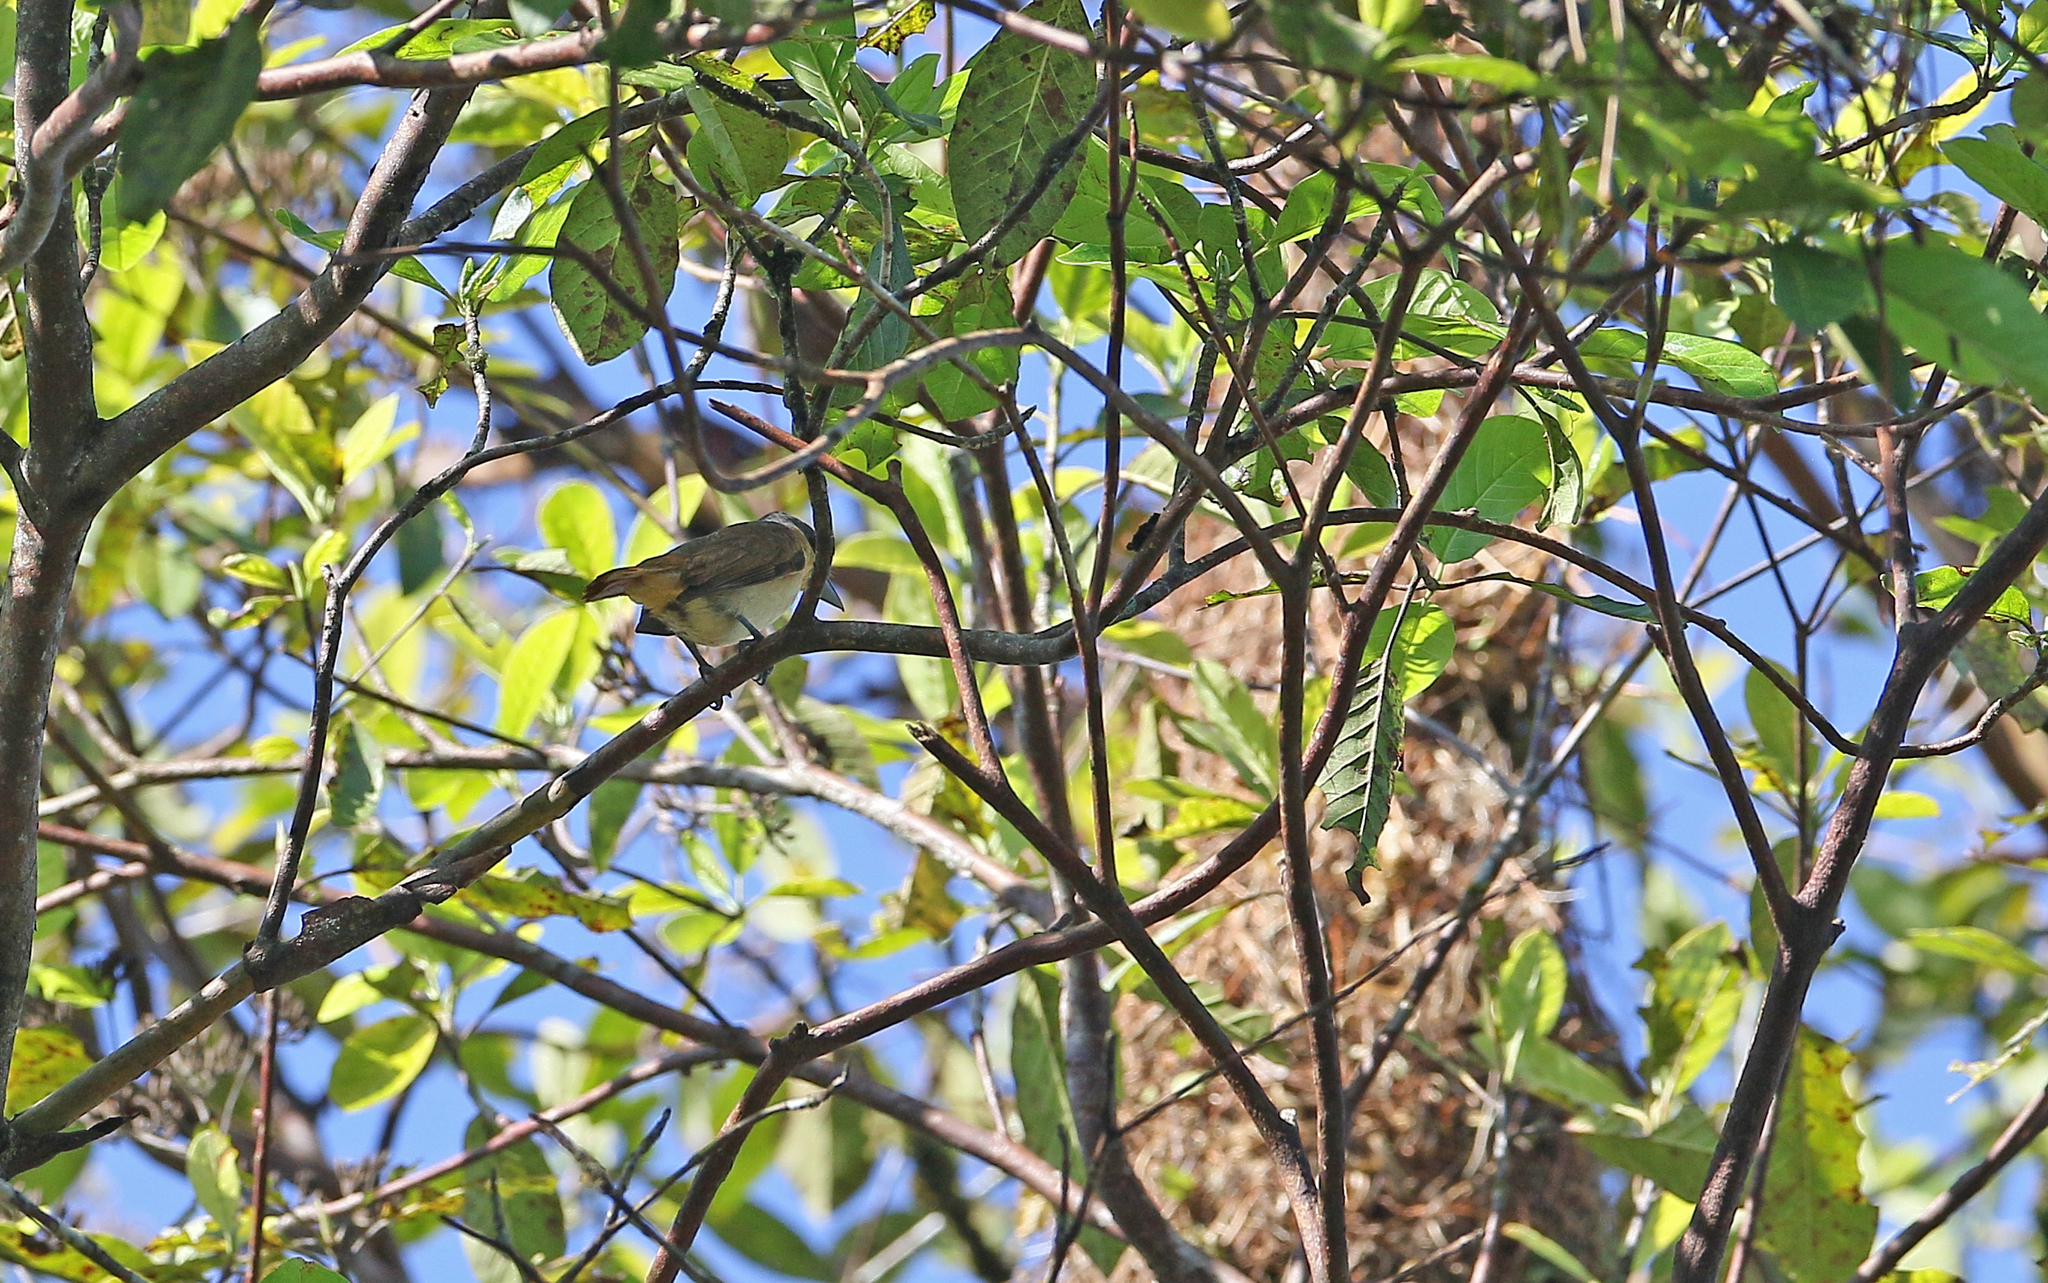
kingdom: Animalia
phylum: Chordata
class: Aves
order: Passeriformes
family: Cotingidae
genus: Pachyramphus
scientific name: Pachyramphus minor
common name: Pink-throated becard
